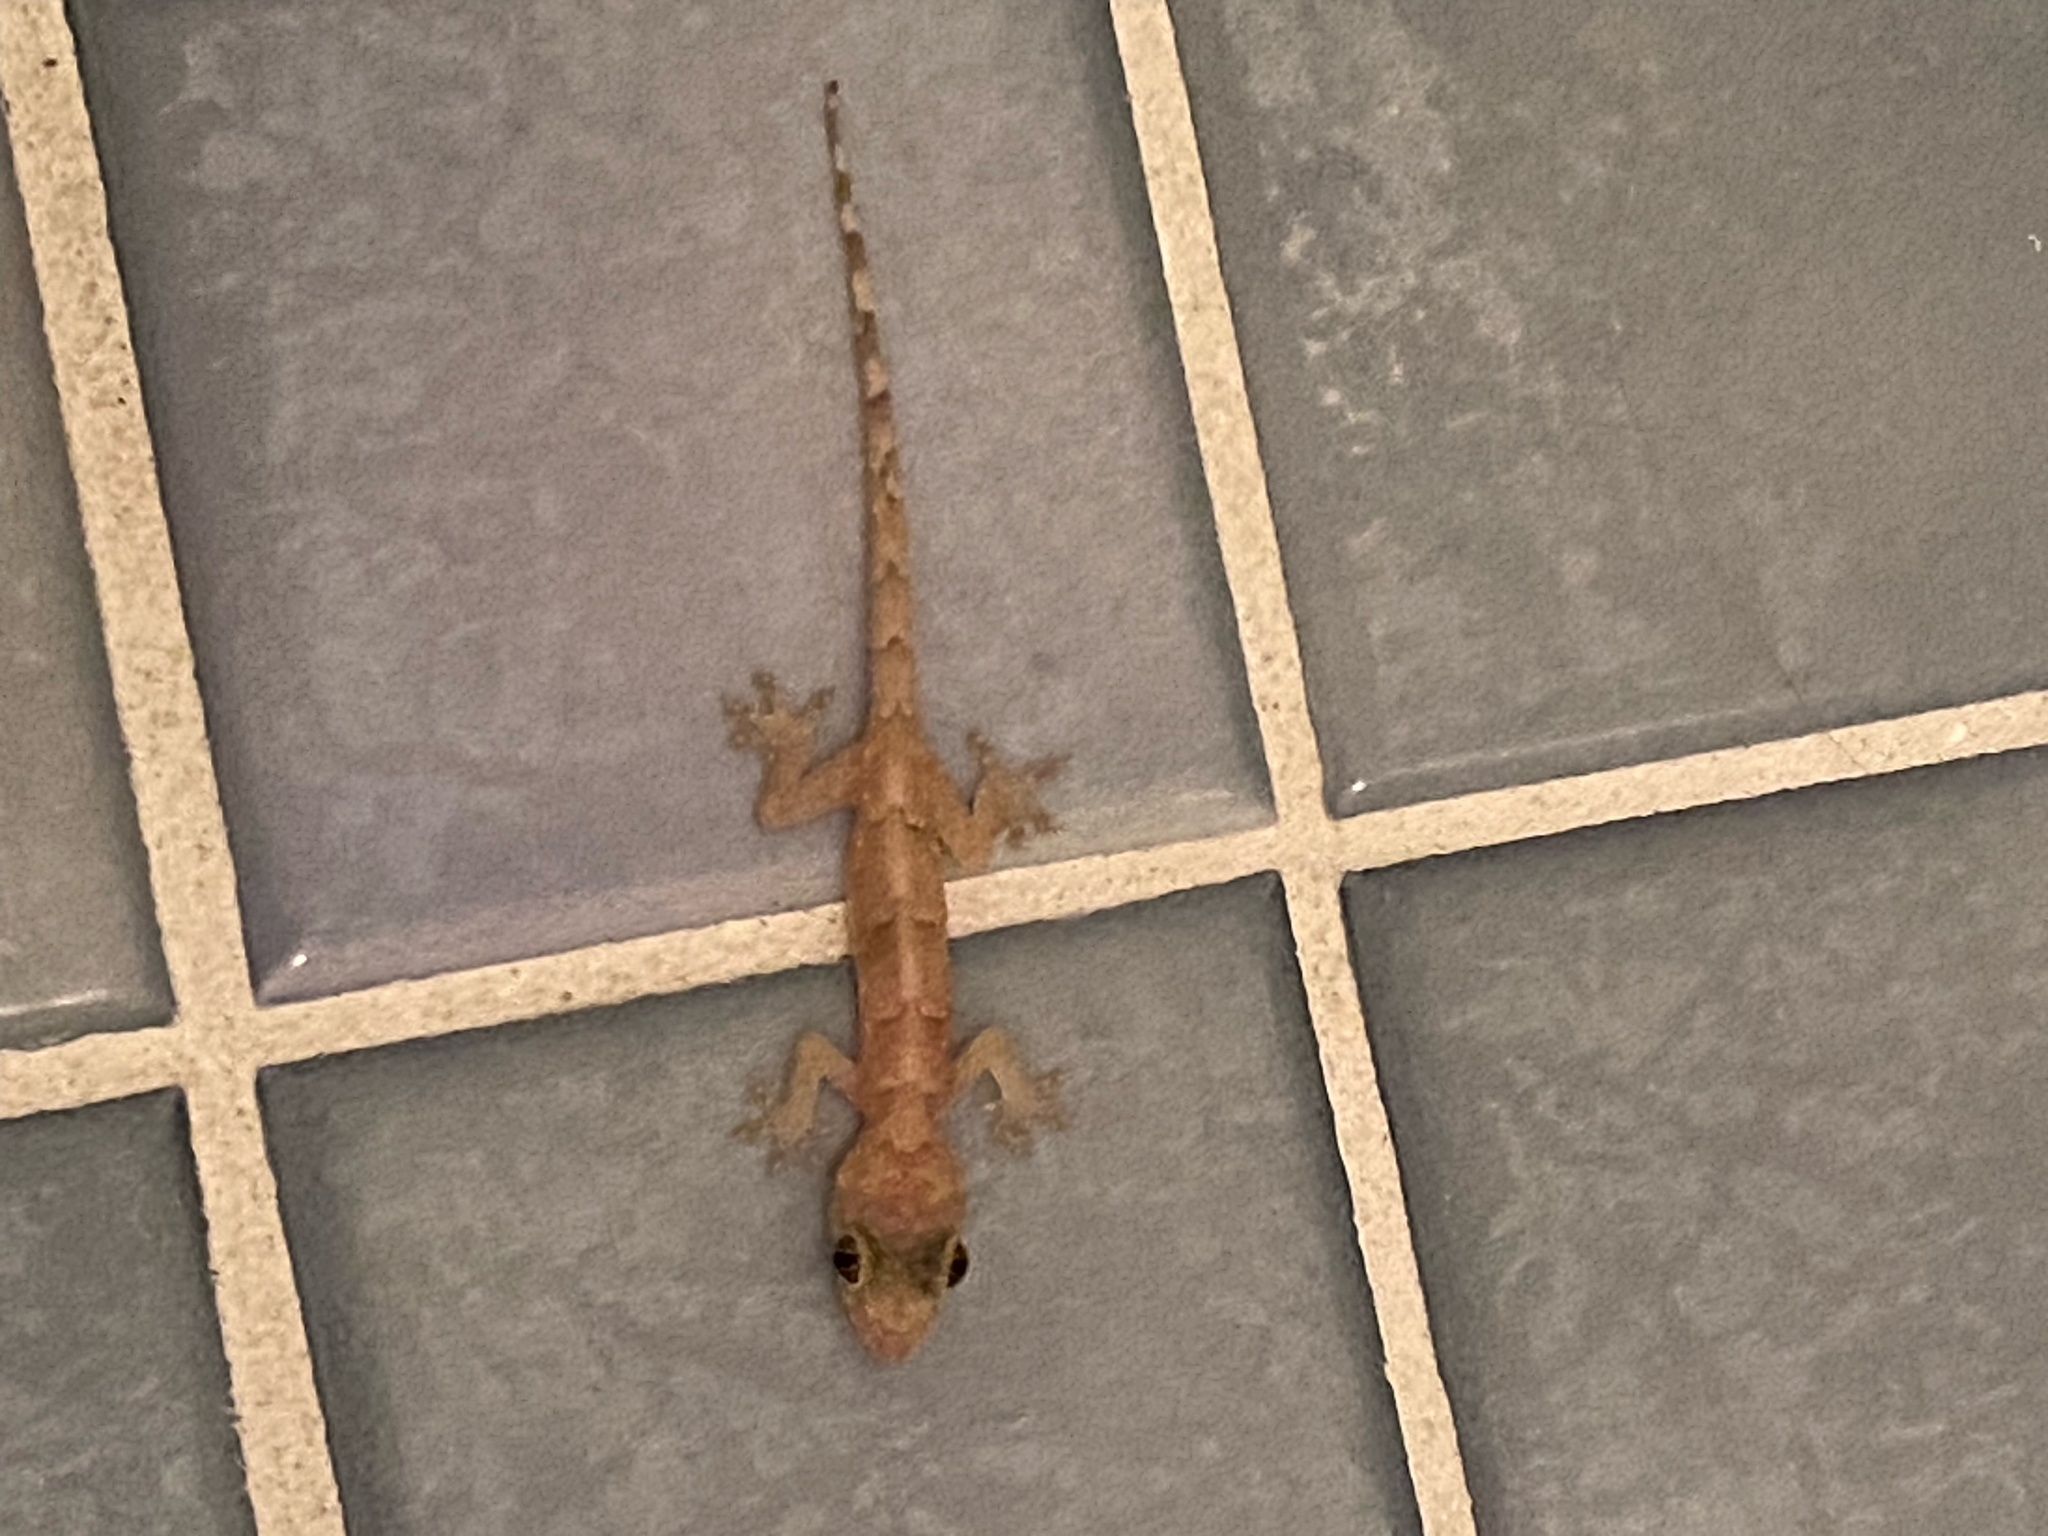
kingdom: Animalia
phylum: Chordata
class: Squamata
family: Gekkonidae
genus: Hemidactylus
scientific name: Hemidactylus mabouia
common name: House gecko
